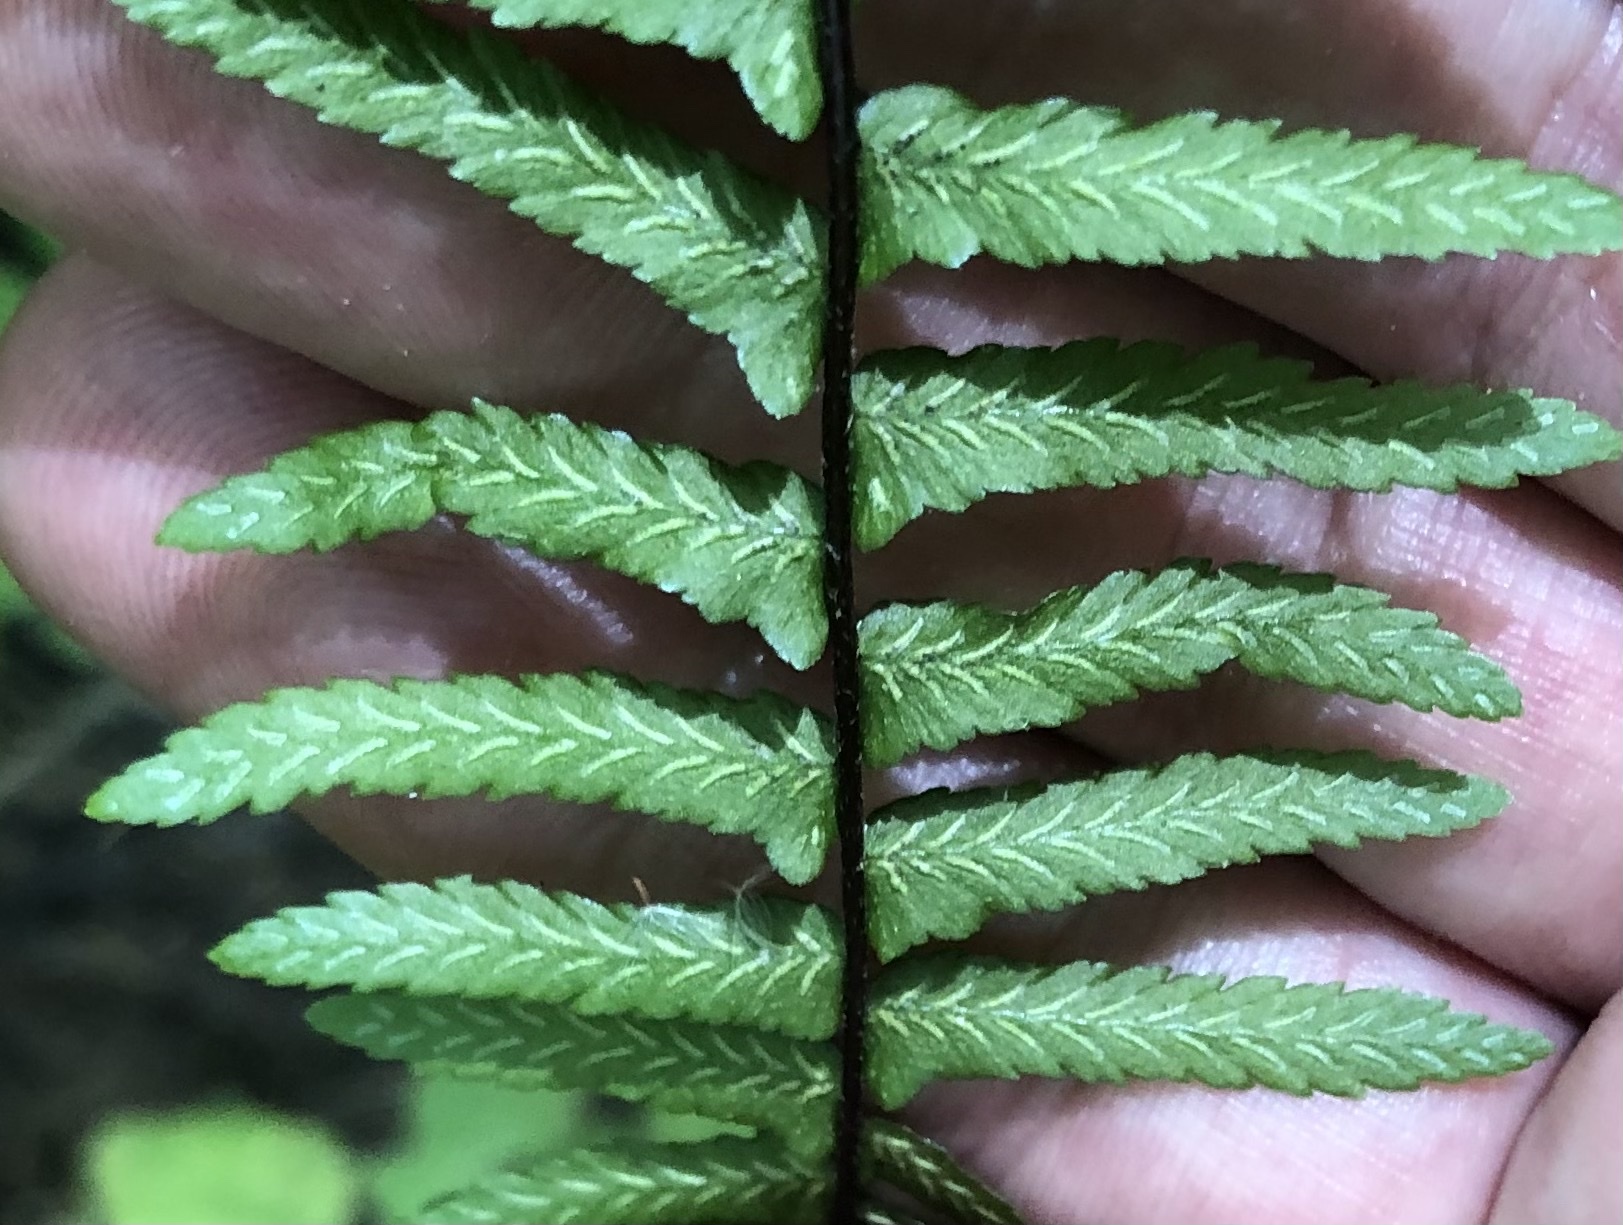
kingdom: Plantae
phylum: Tracheophyta
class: Polypodiopsida
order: Polypodiales
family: Aspleniaceae
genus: Asplenium
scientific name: Asplenium platyneuron
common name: Ebony spleenwort
